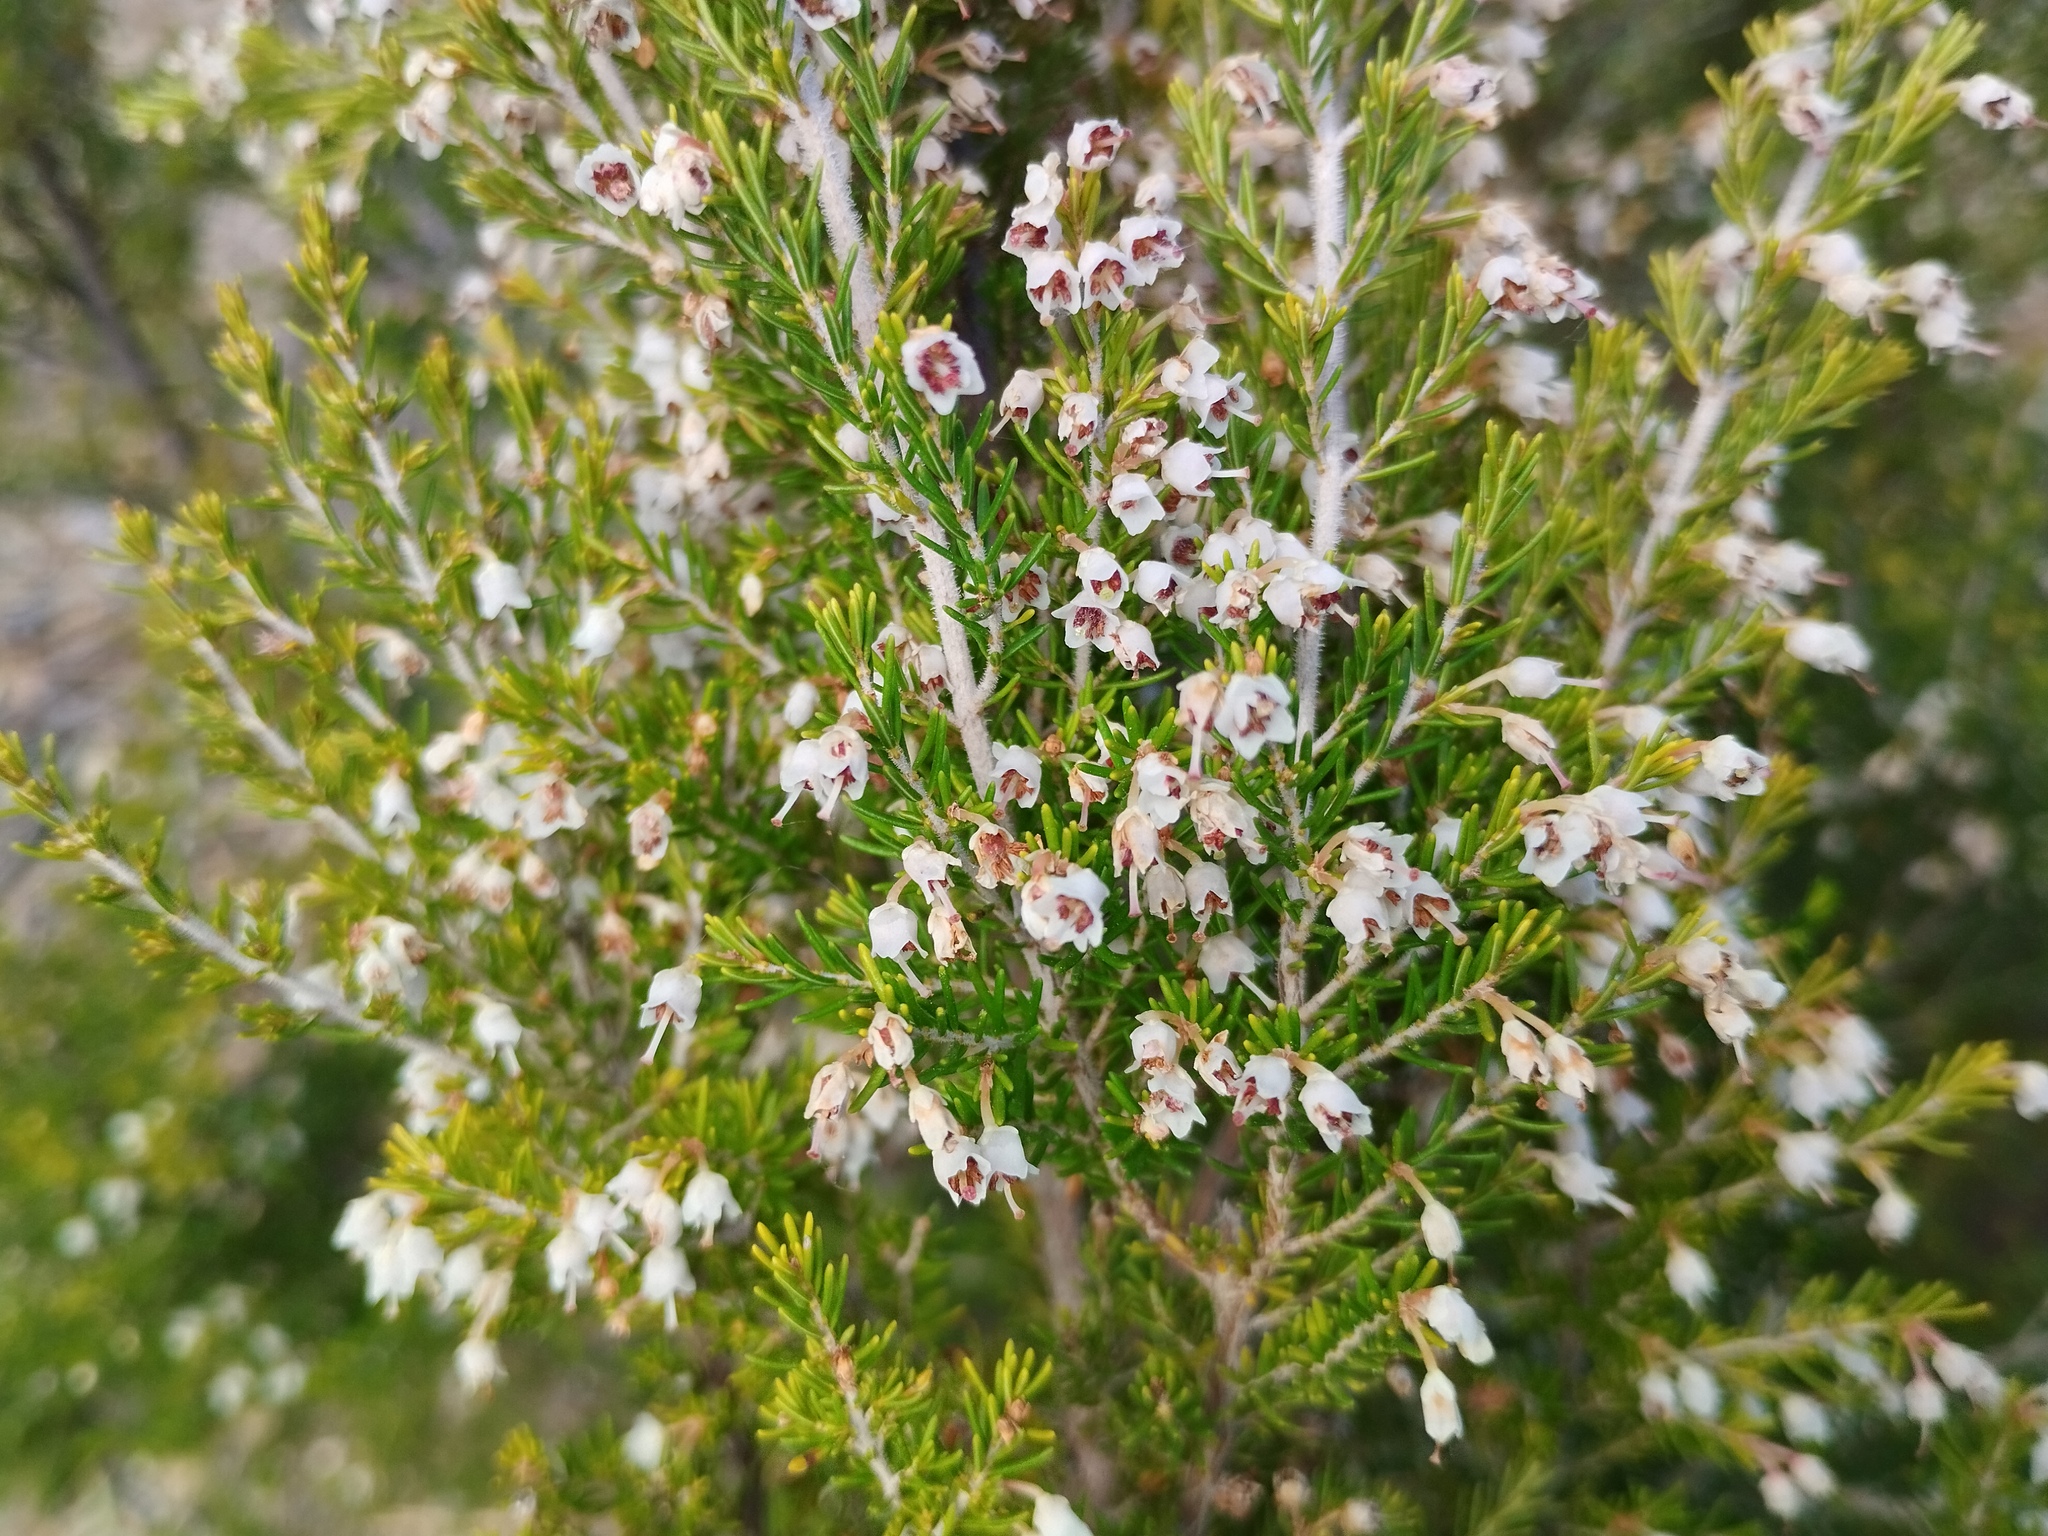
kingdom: Plantae
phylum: Tracheophyta
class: Magnoliopsida
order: Ericales
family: Ericaceae
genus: Erica
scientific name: Erica arborea
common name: Tree heath
